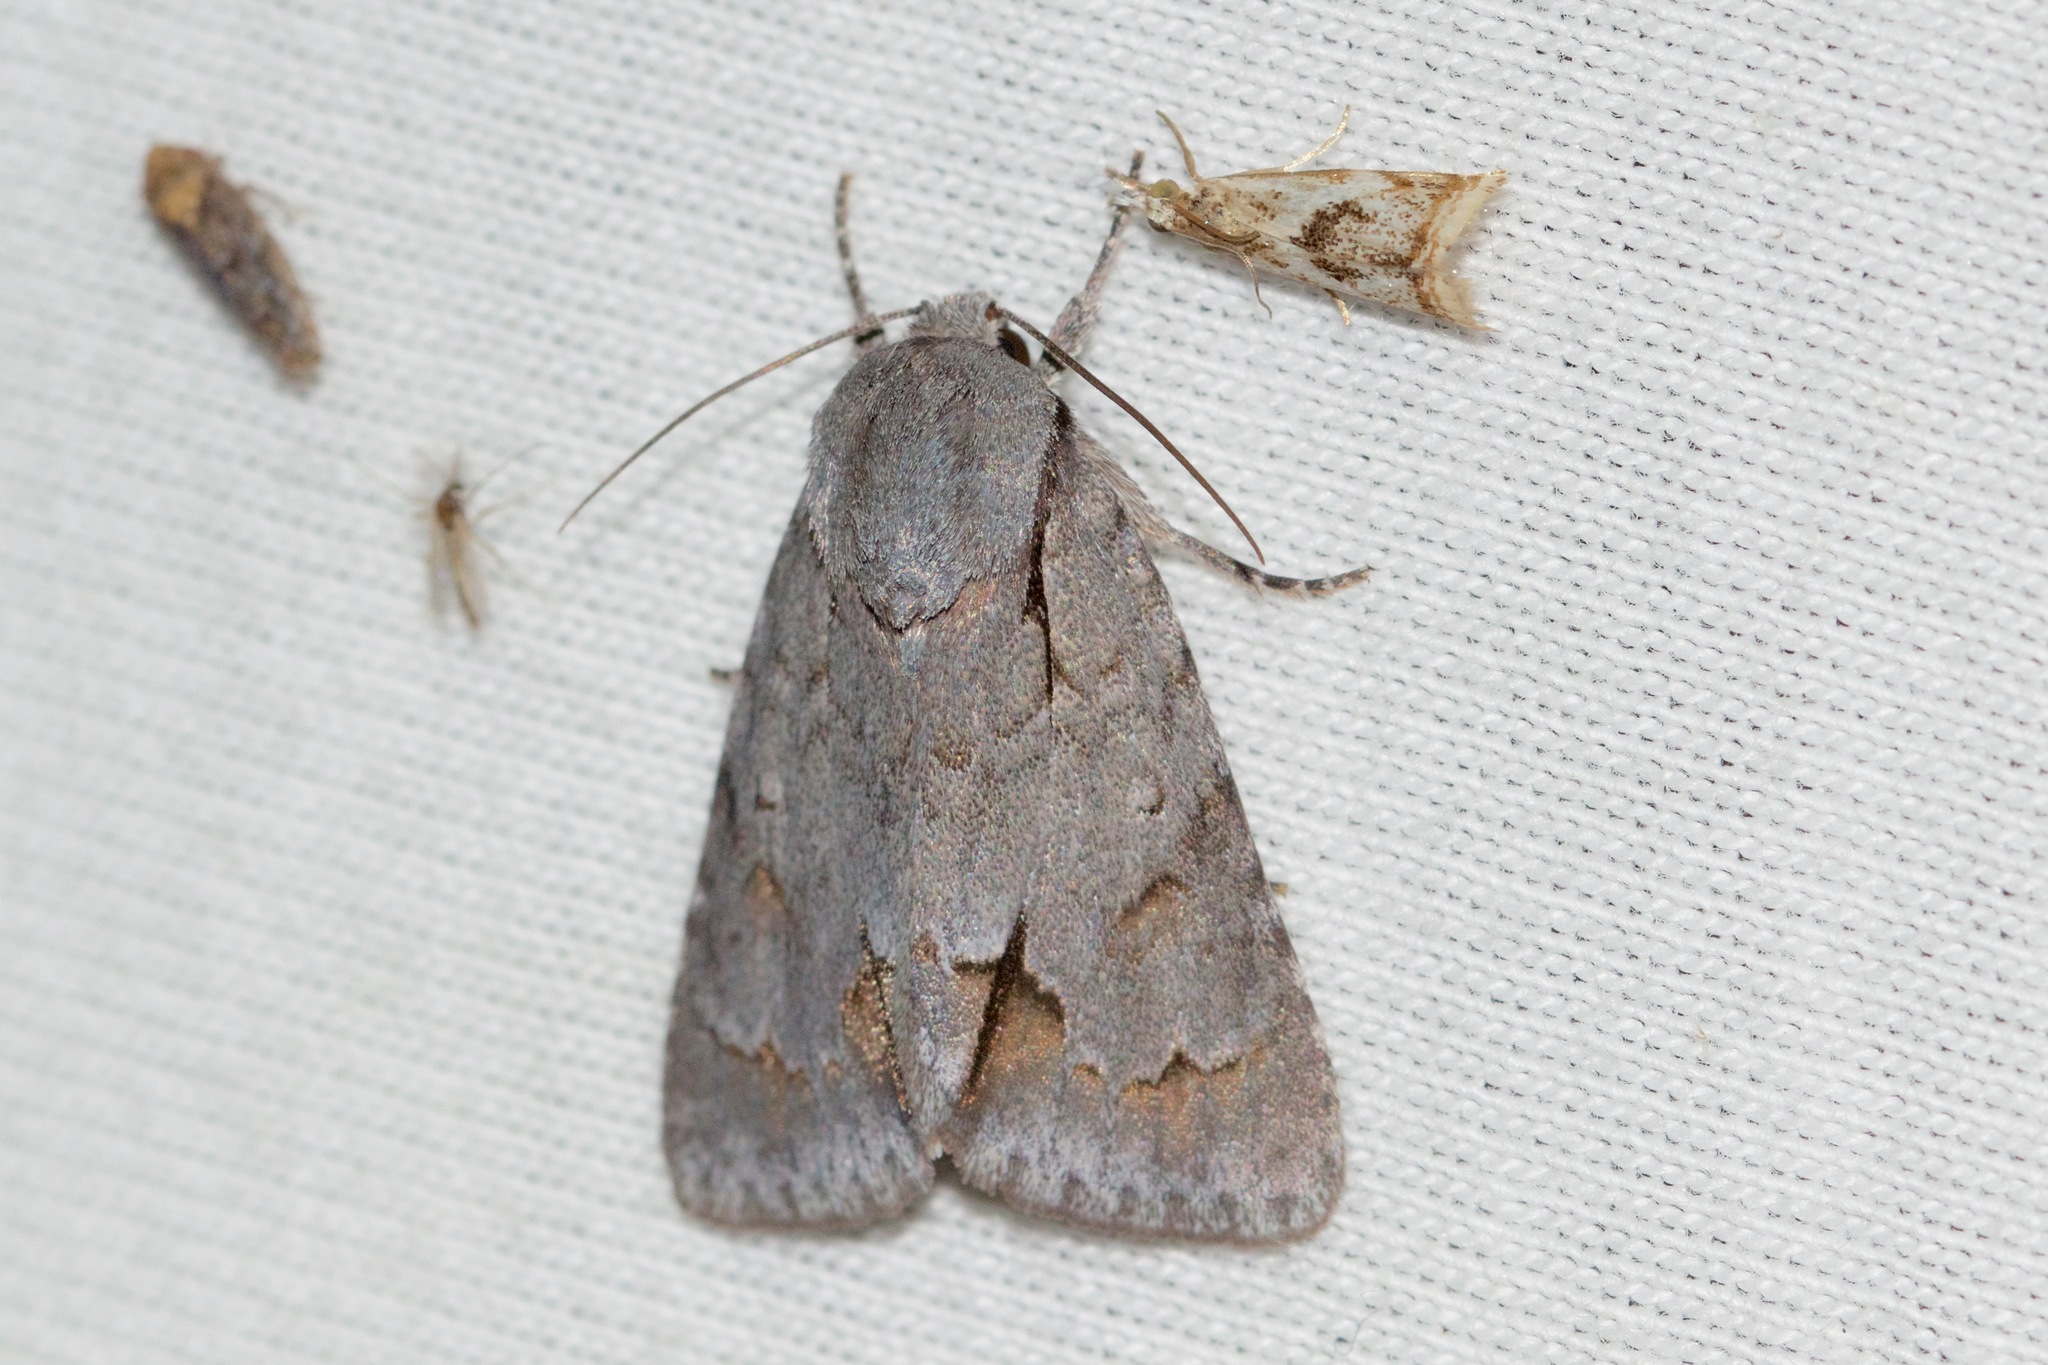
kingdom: Animalia
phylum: Arthropoda
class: Insecta
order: Lepidoptera
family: Noctuidae
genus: Acronicta
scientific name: Acronicta tritona
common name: Triton dagger
